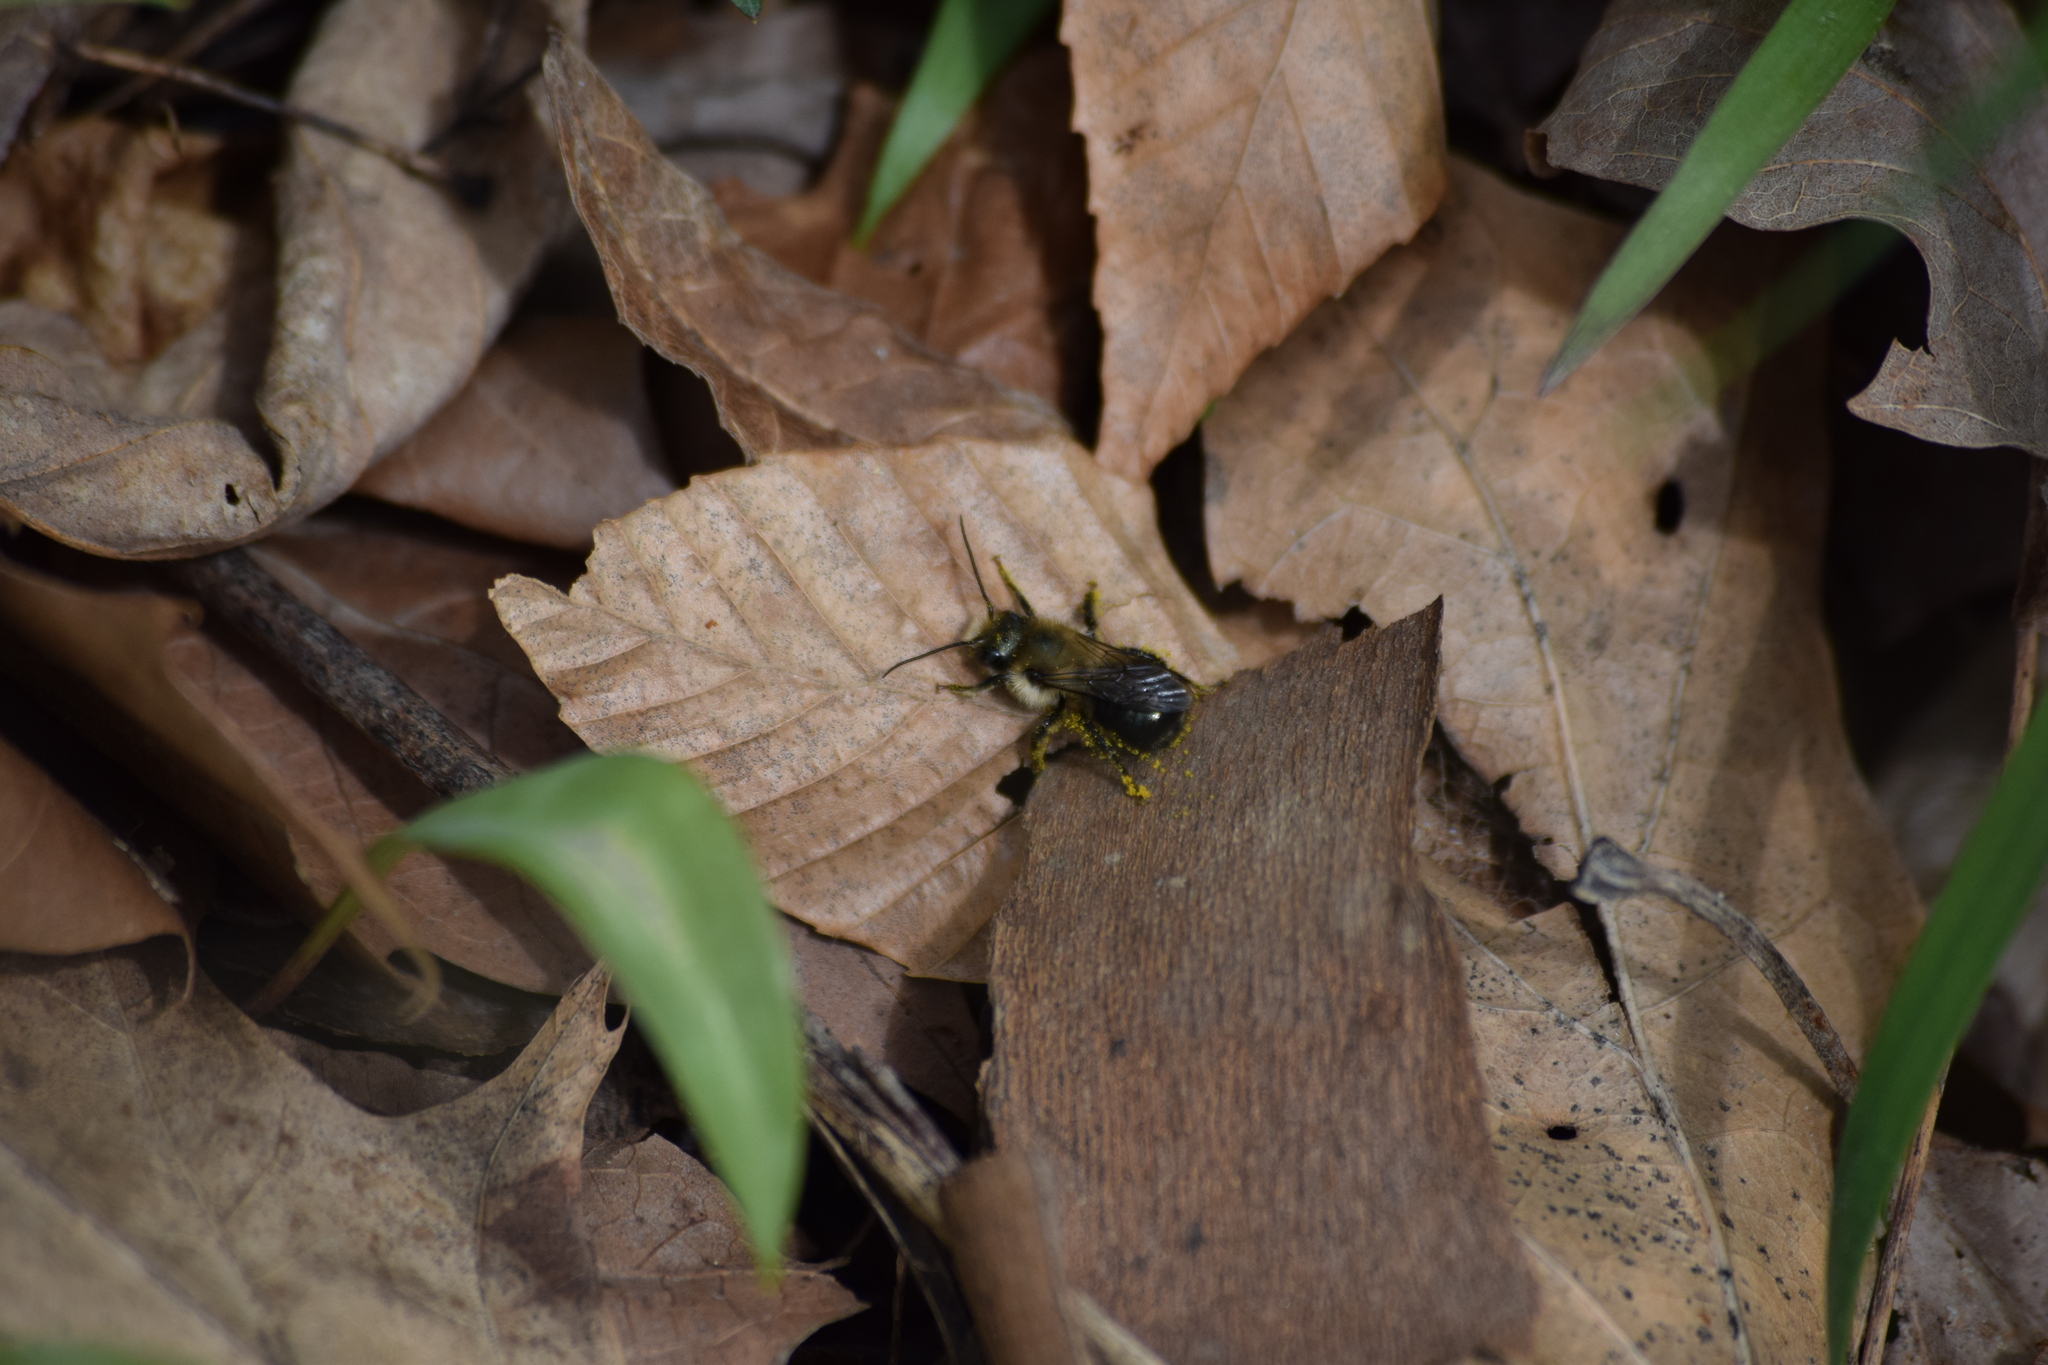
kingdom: Animalia
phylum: Arthropoda
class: Insecta
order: Hymenoptera
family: Megachilidae
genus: Osmia
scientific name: Osmia bucephala
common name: Bufflehead mason bee
